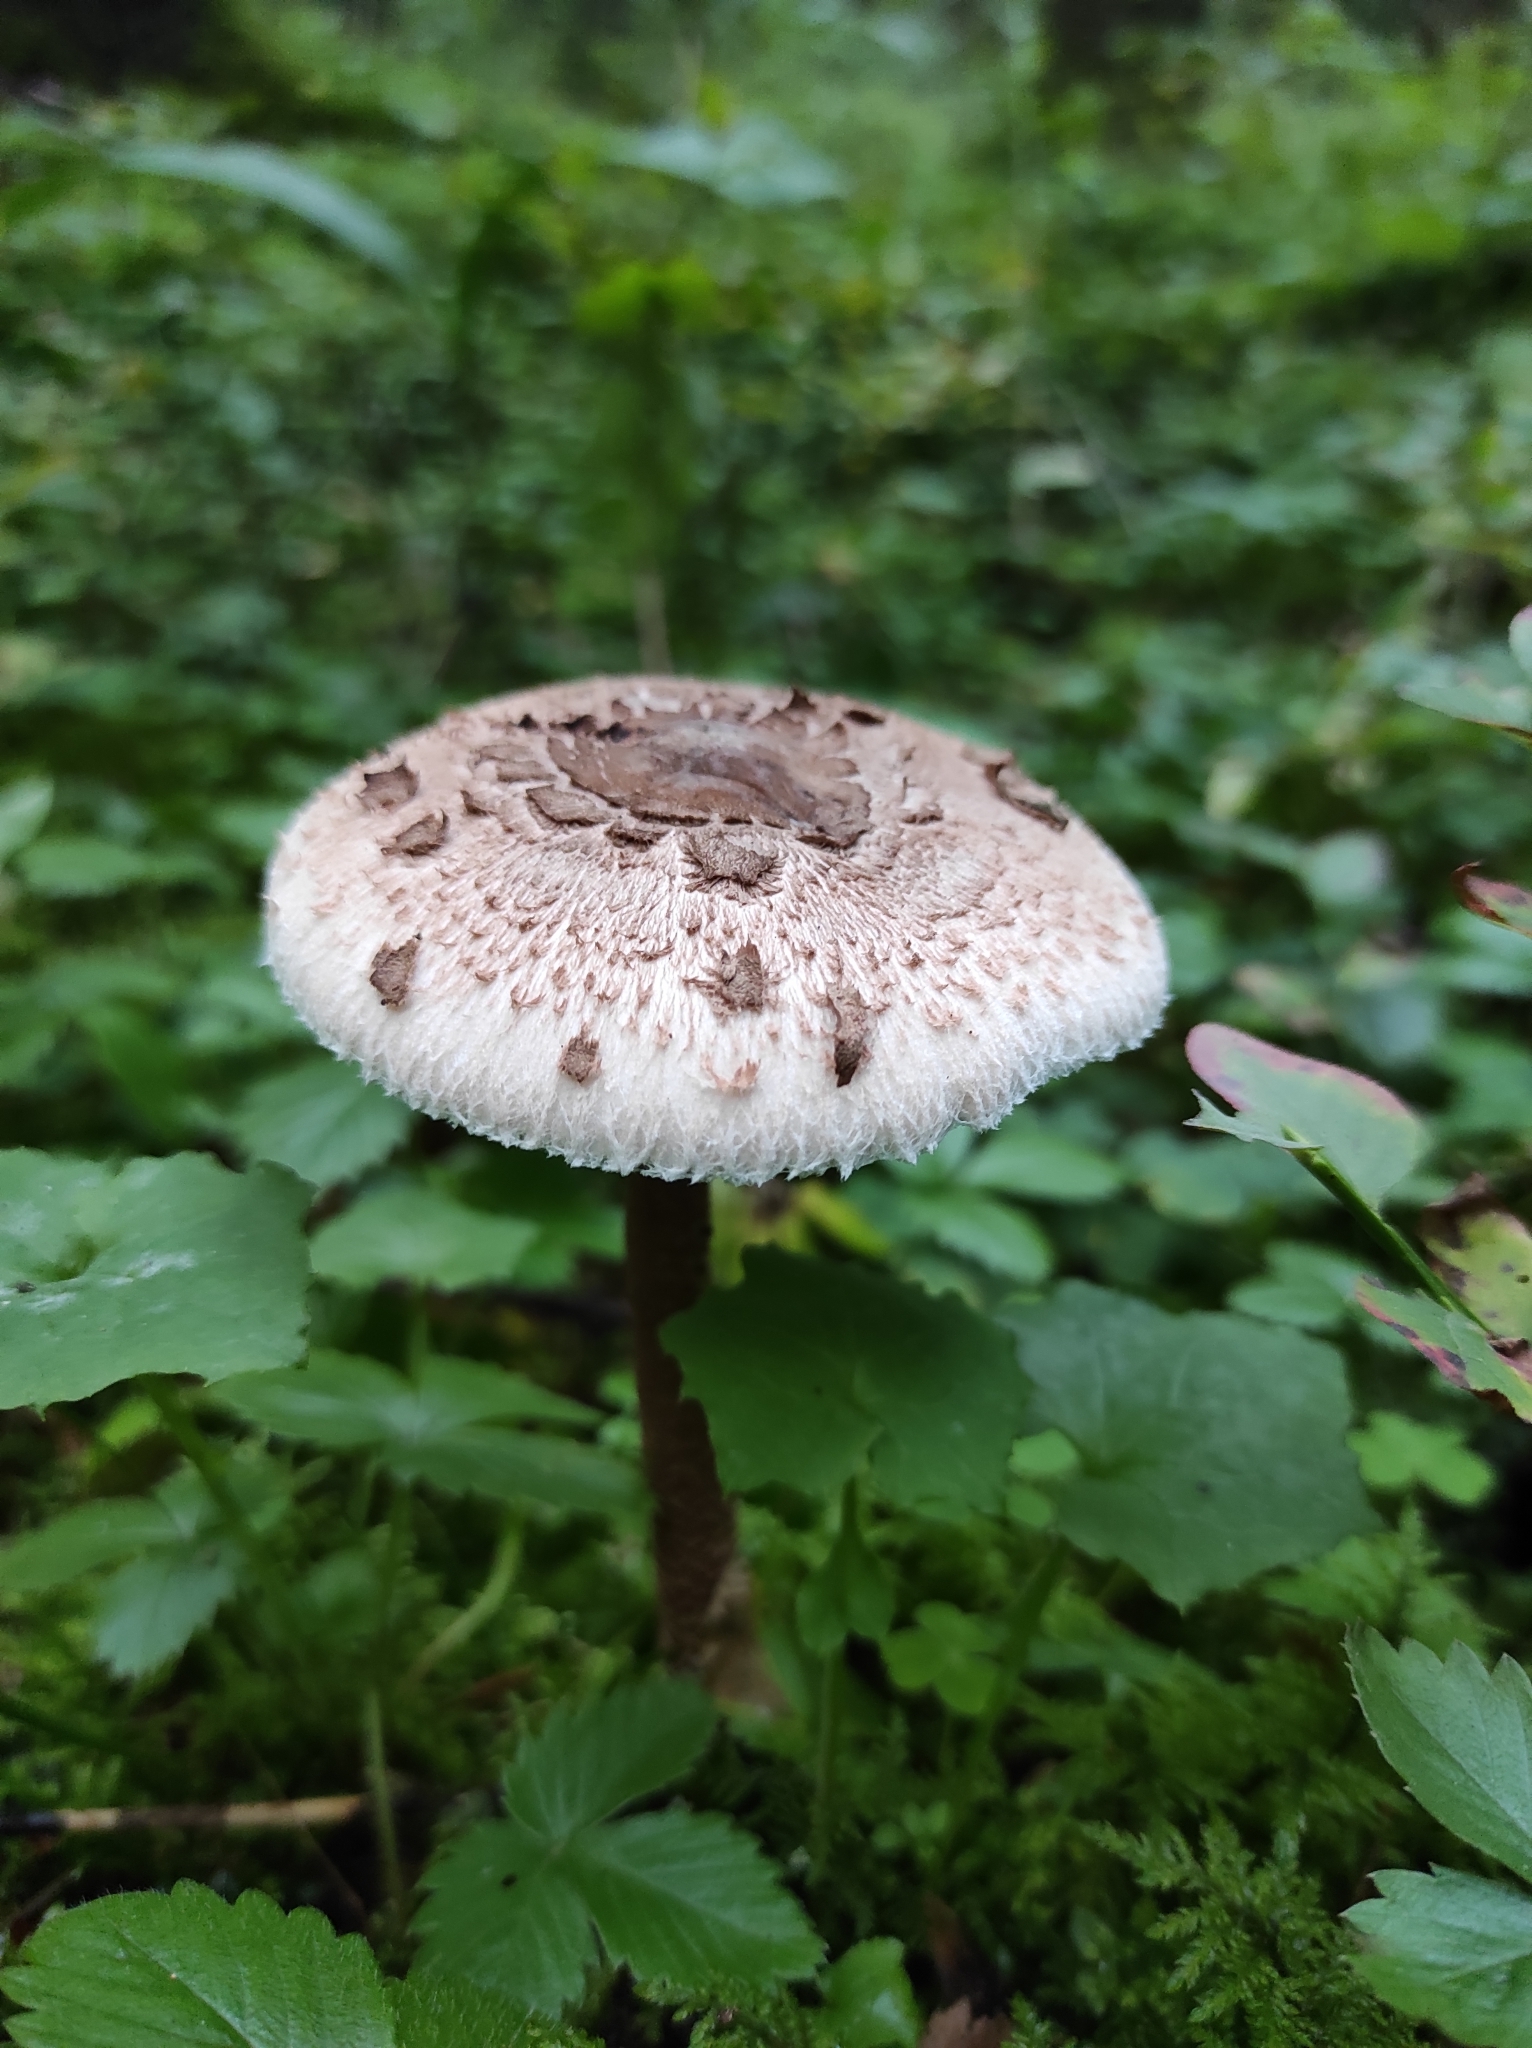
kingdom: Fungi
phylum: Basidiomycota
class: Agaricomycetes
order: Agaricales
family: Agaricaceae
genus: Macrolepiota
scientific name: Macrolepiota procera
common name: Parasol
